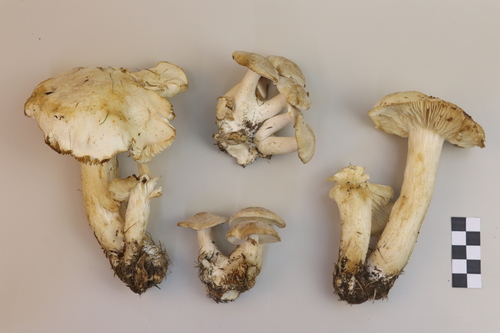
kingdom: Fungi
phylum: Basidiomycota
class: Agaricomycetes
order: Agaricales
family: Lyophyllaceae
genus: Lyophyllum
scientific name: Lyophyllum decastes
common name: Clustered domecap
